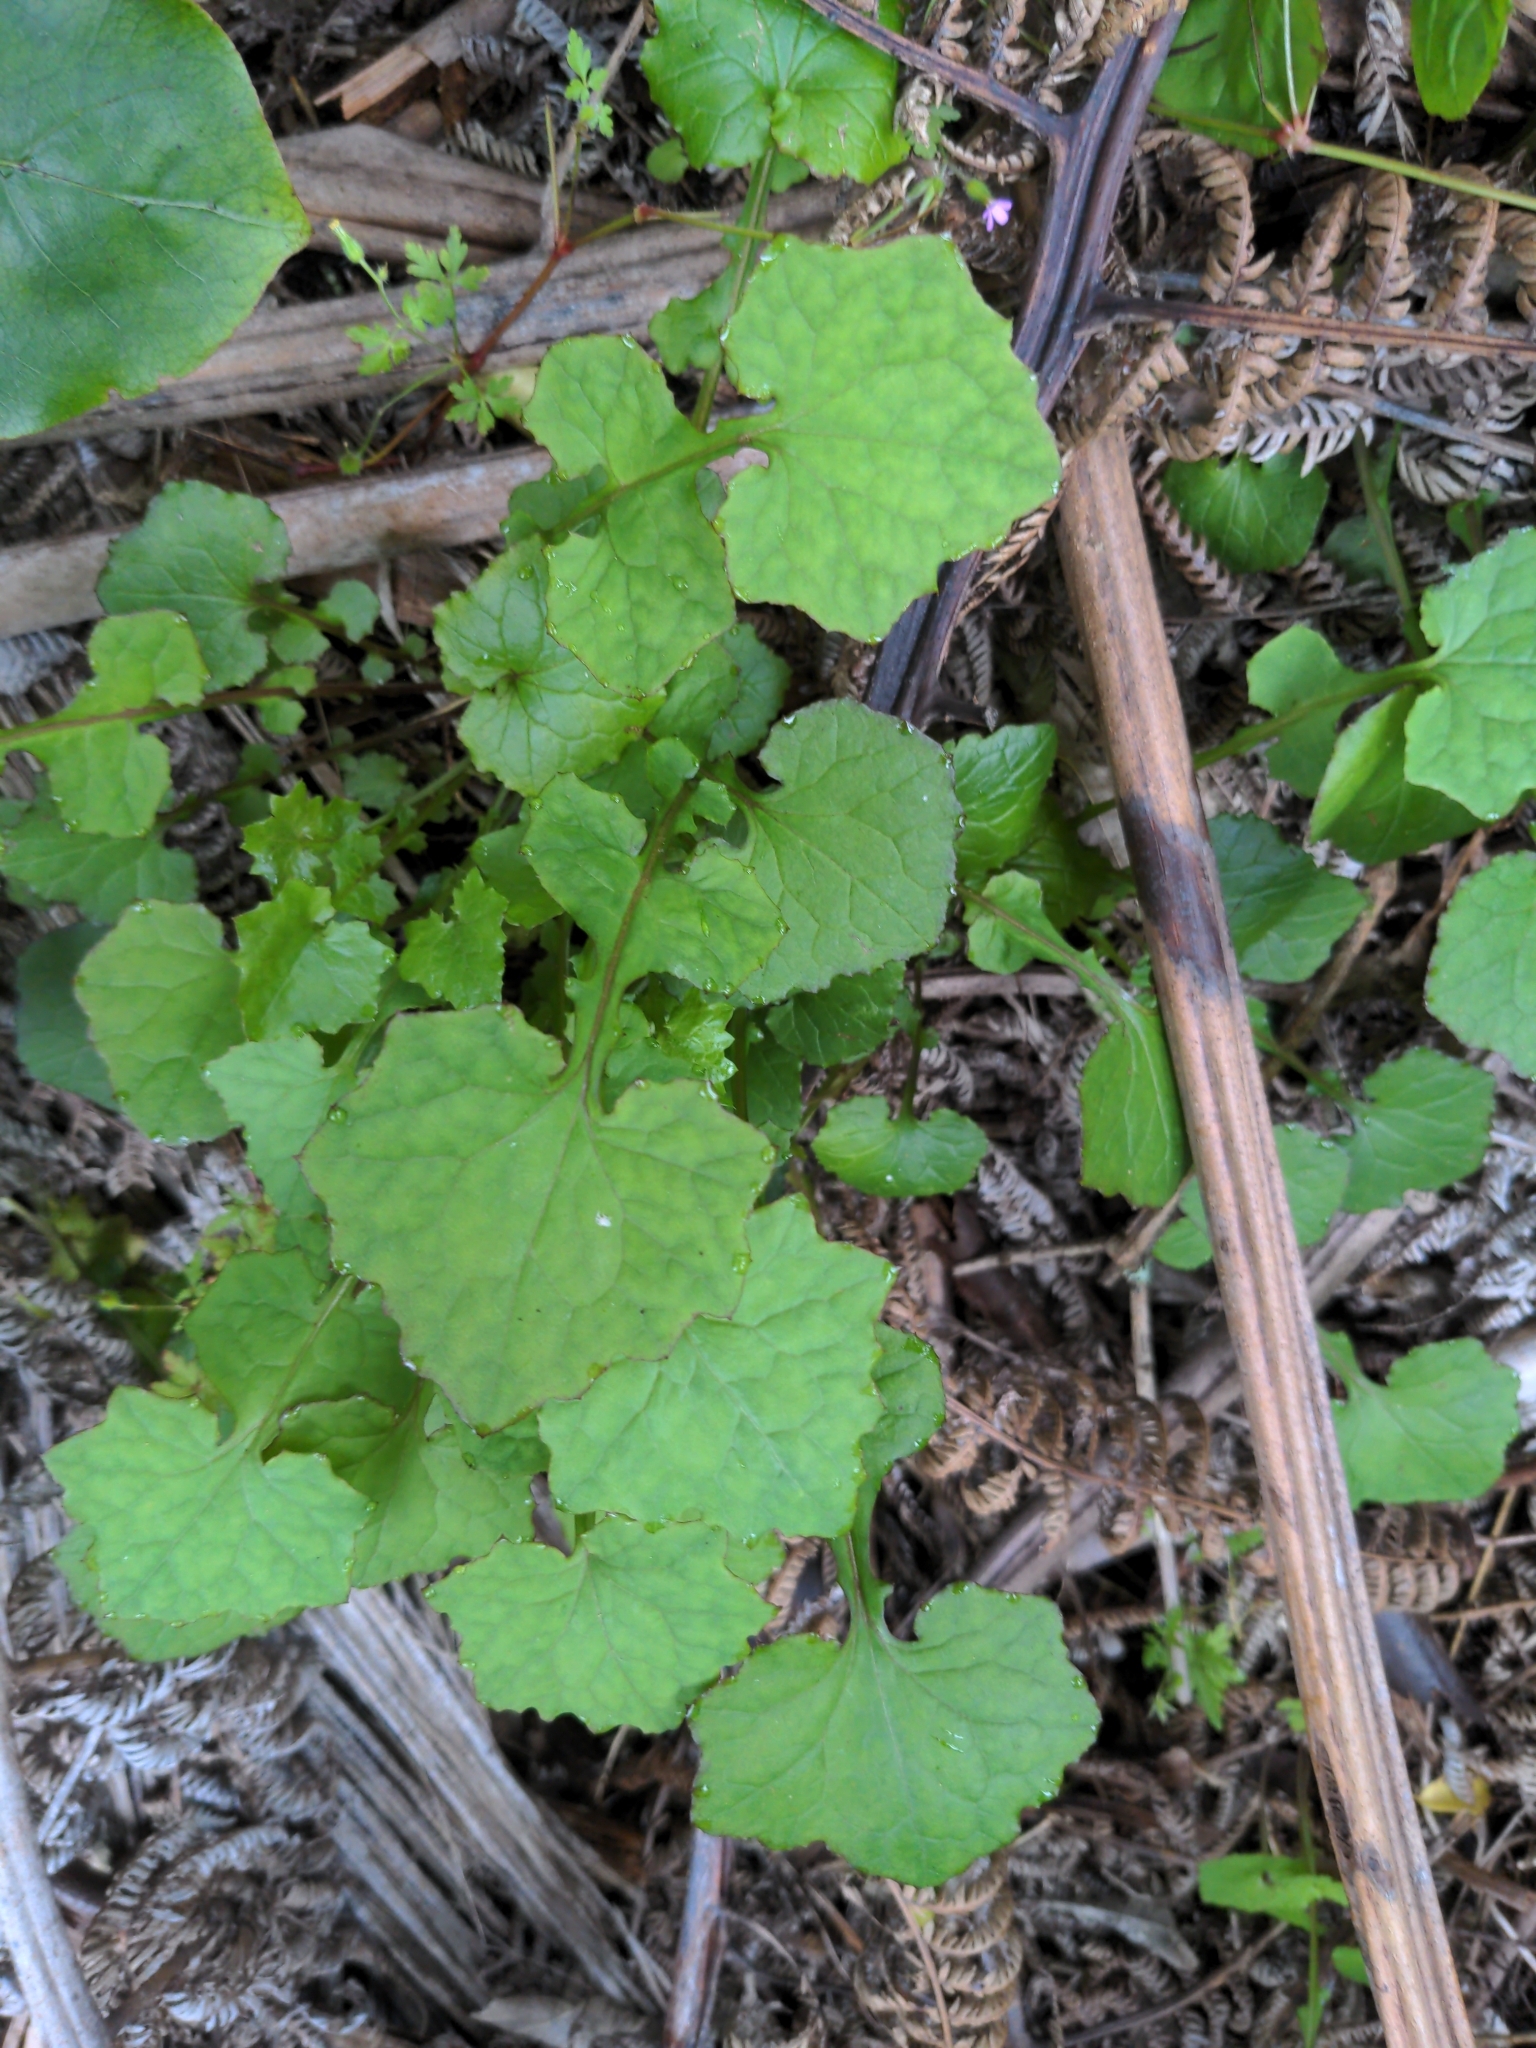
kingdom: Plantae
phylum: Tracheophyta
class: Magnoliopsida
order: Asterales
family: Asteraceae
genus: Mycelis
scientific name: Mycelis muralis
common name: Wall lettuce
